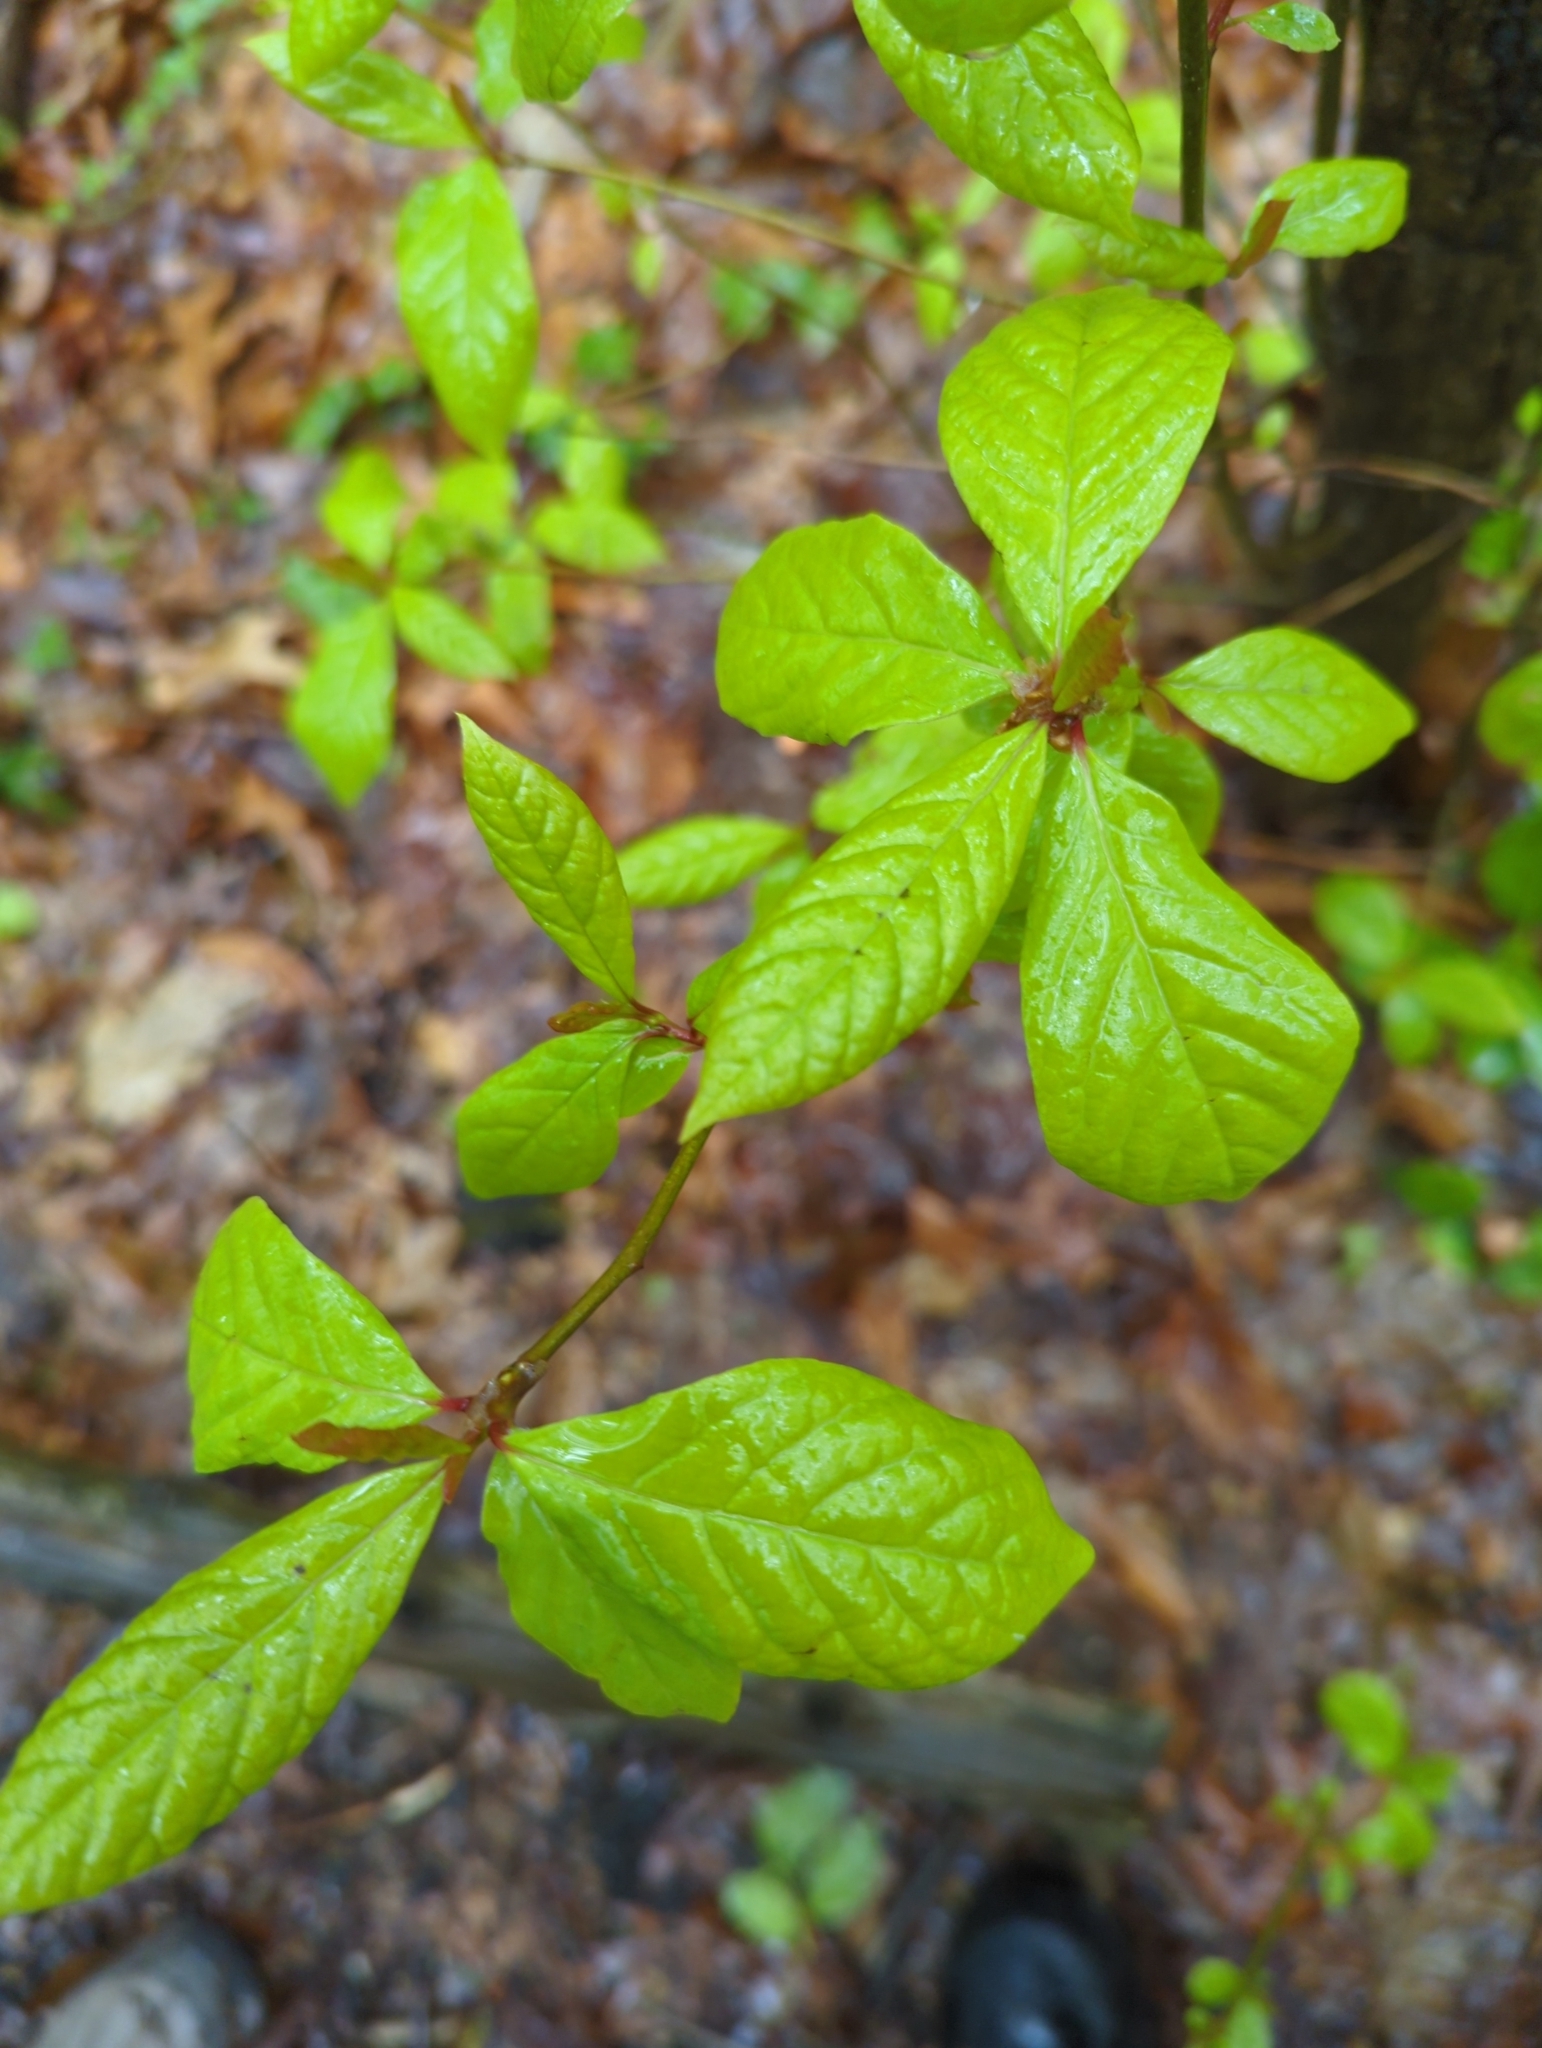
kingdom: Plantae
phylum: Tracheophyta
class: Magnoliopsida
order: Cornales
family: Nyssaceae
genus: Nyssa
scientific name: Nyssa sylvatica
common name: Black tupelo
